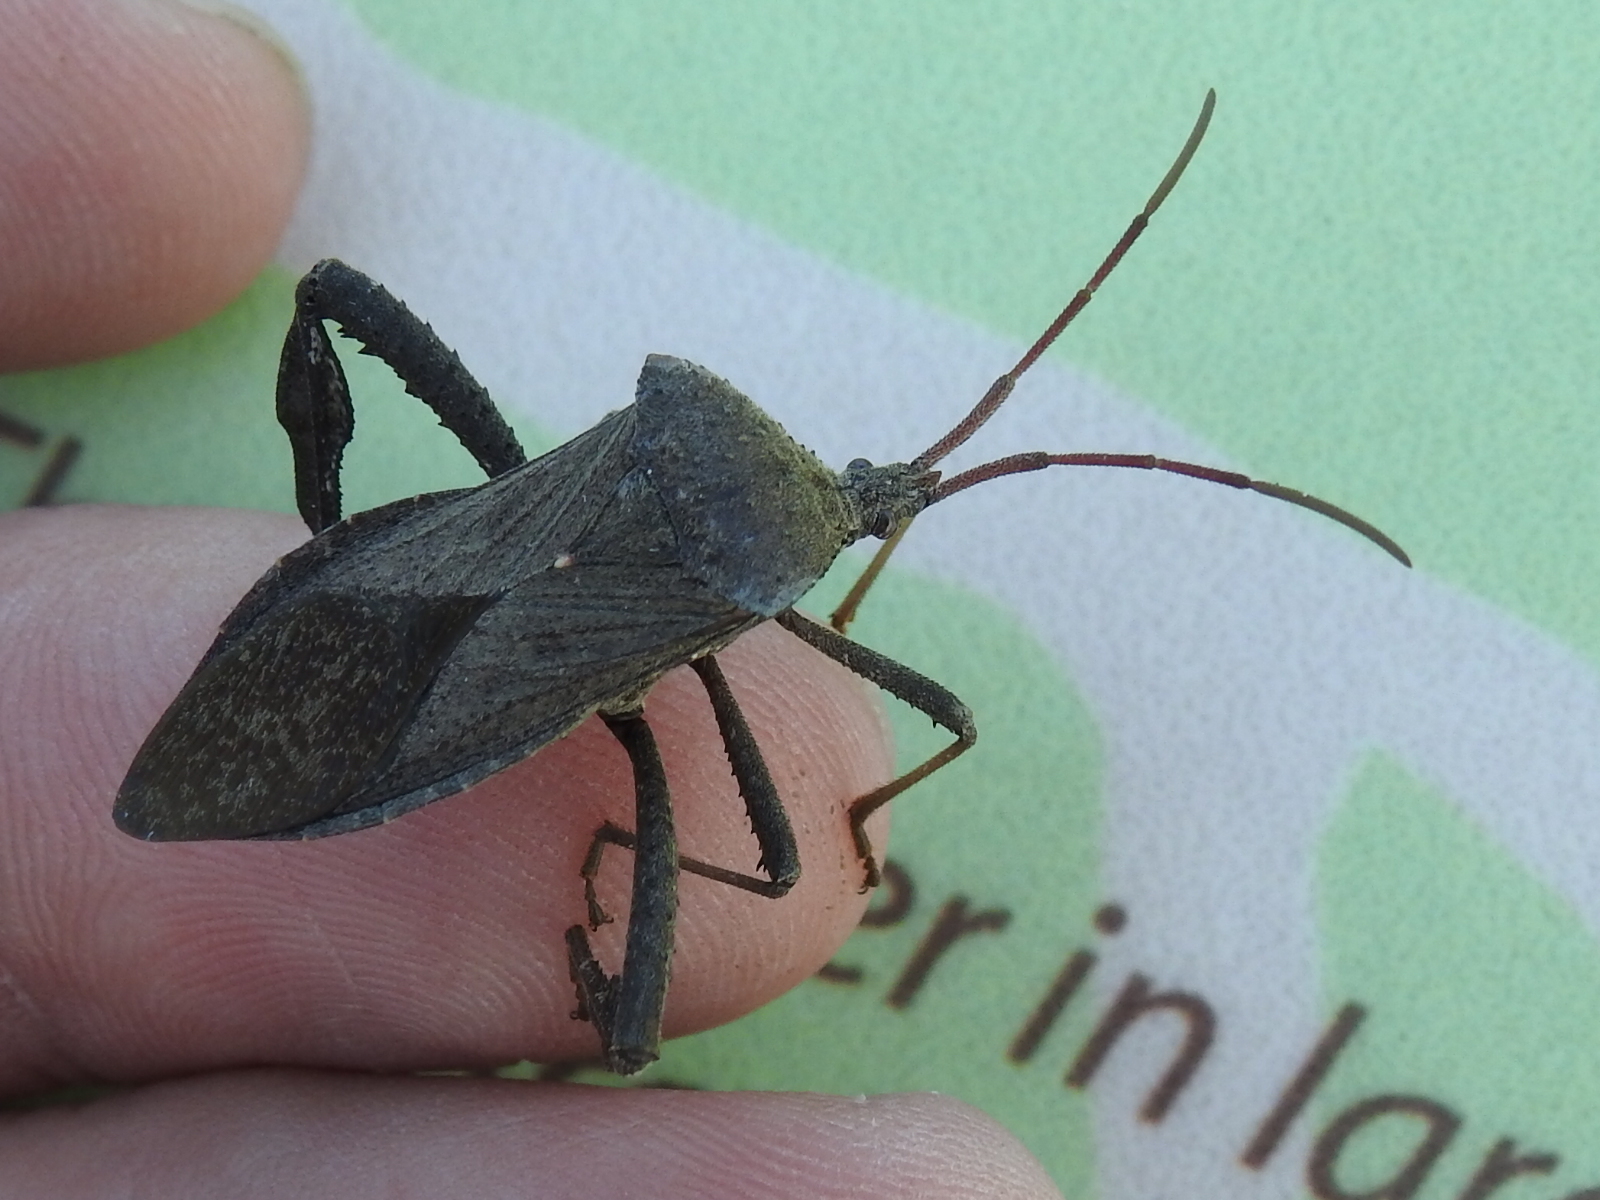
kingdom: Animalia
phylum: Arthropoda
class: Insecta
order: Hemiptera
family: Coreidae
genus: Acanthocephala
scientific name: Acanthocephala femorata
